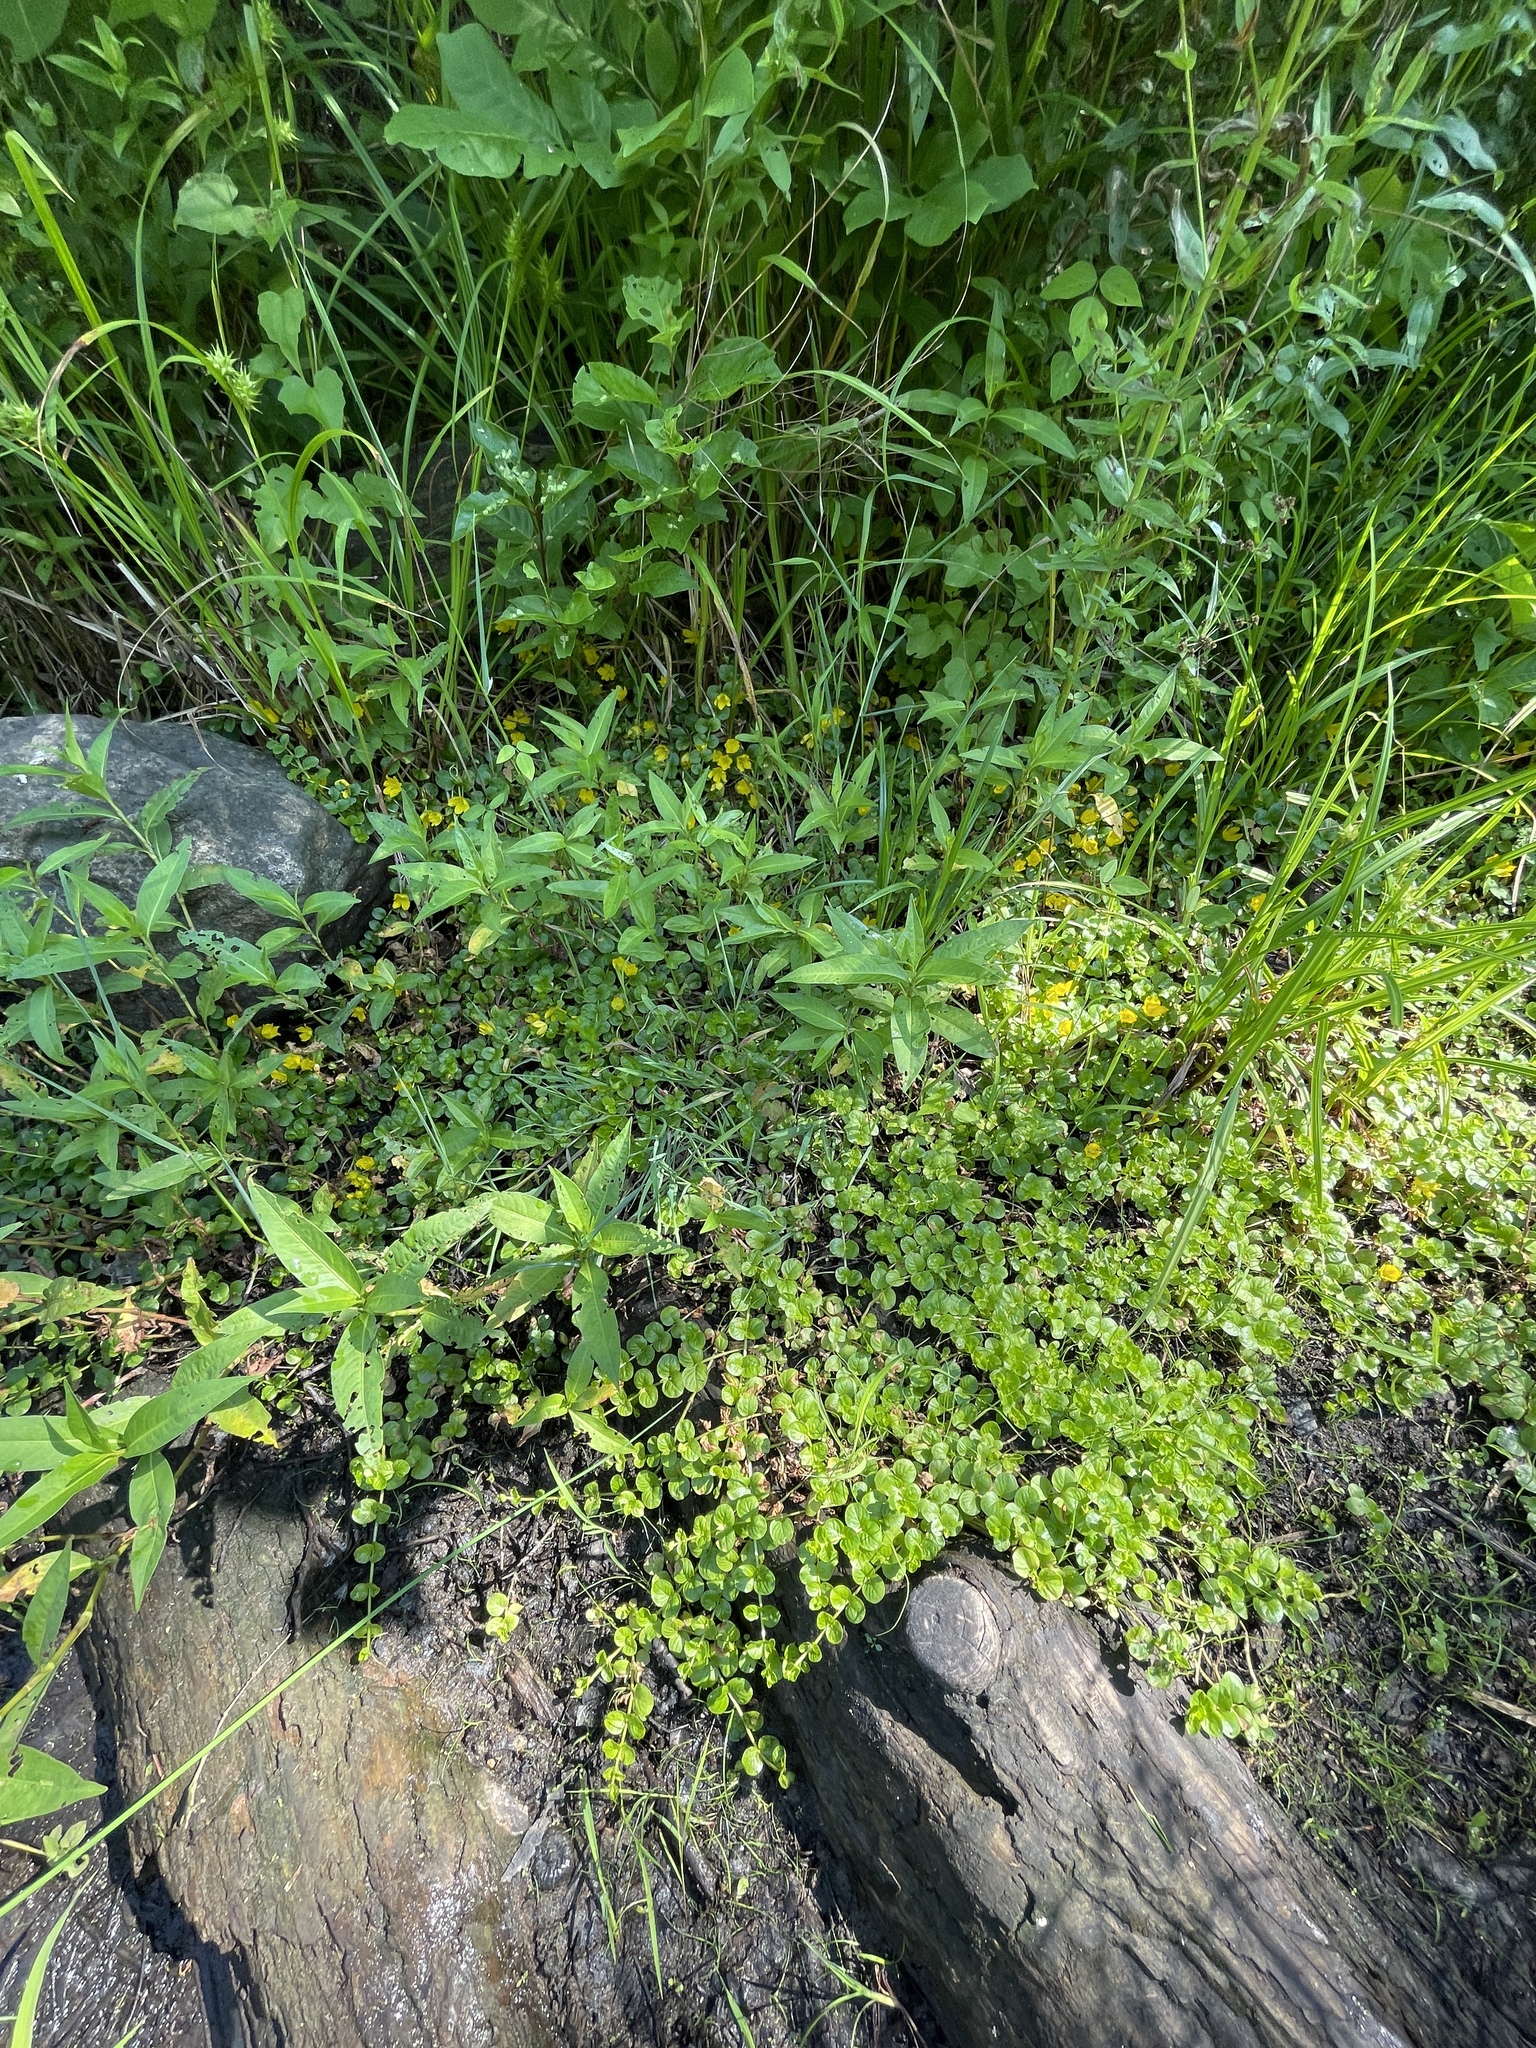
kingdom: Plantae
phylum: Tracheophyta
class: Magnoliopsida
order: Ericales
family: Primulaceae
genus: Lysimachia
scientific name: Lysimachia nummularia
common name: Moneywort
